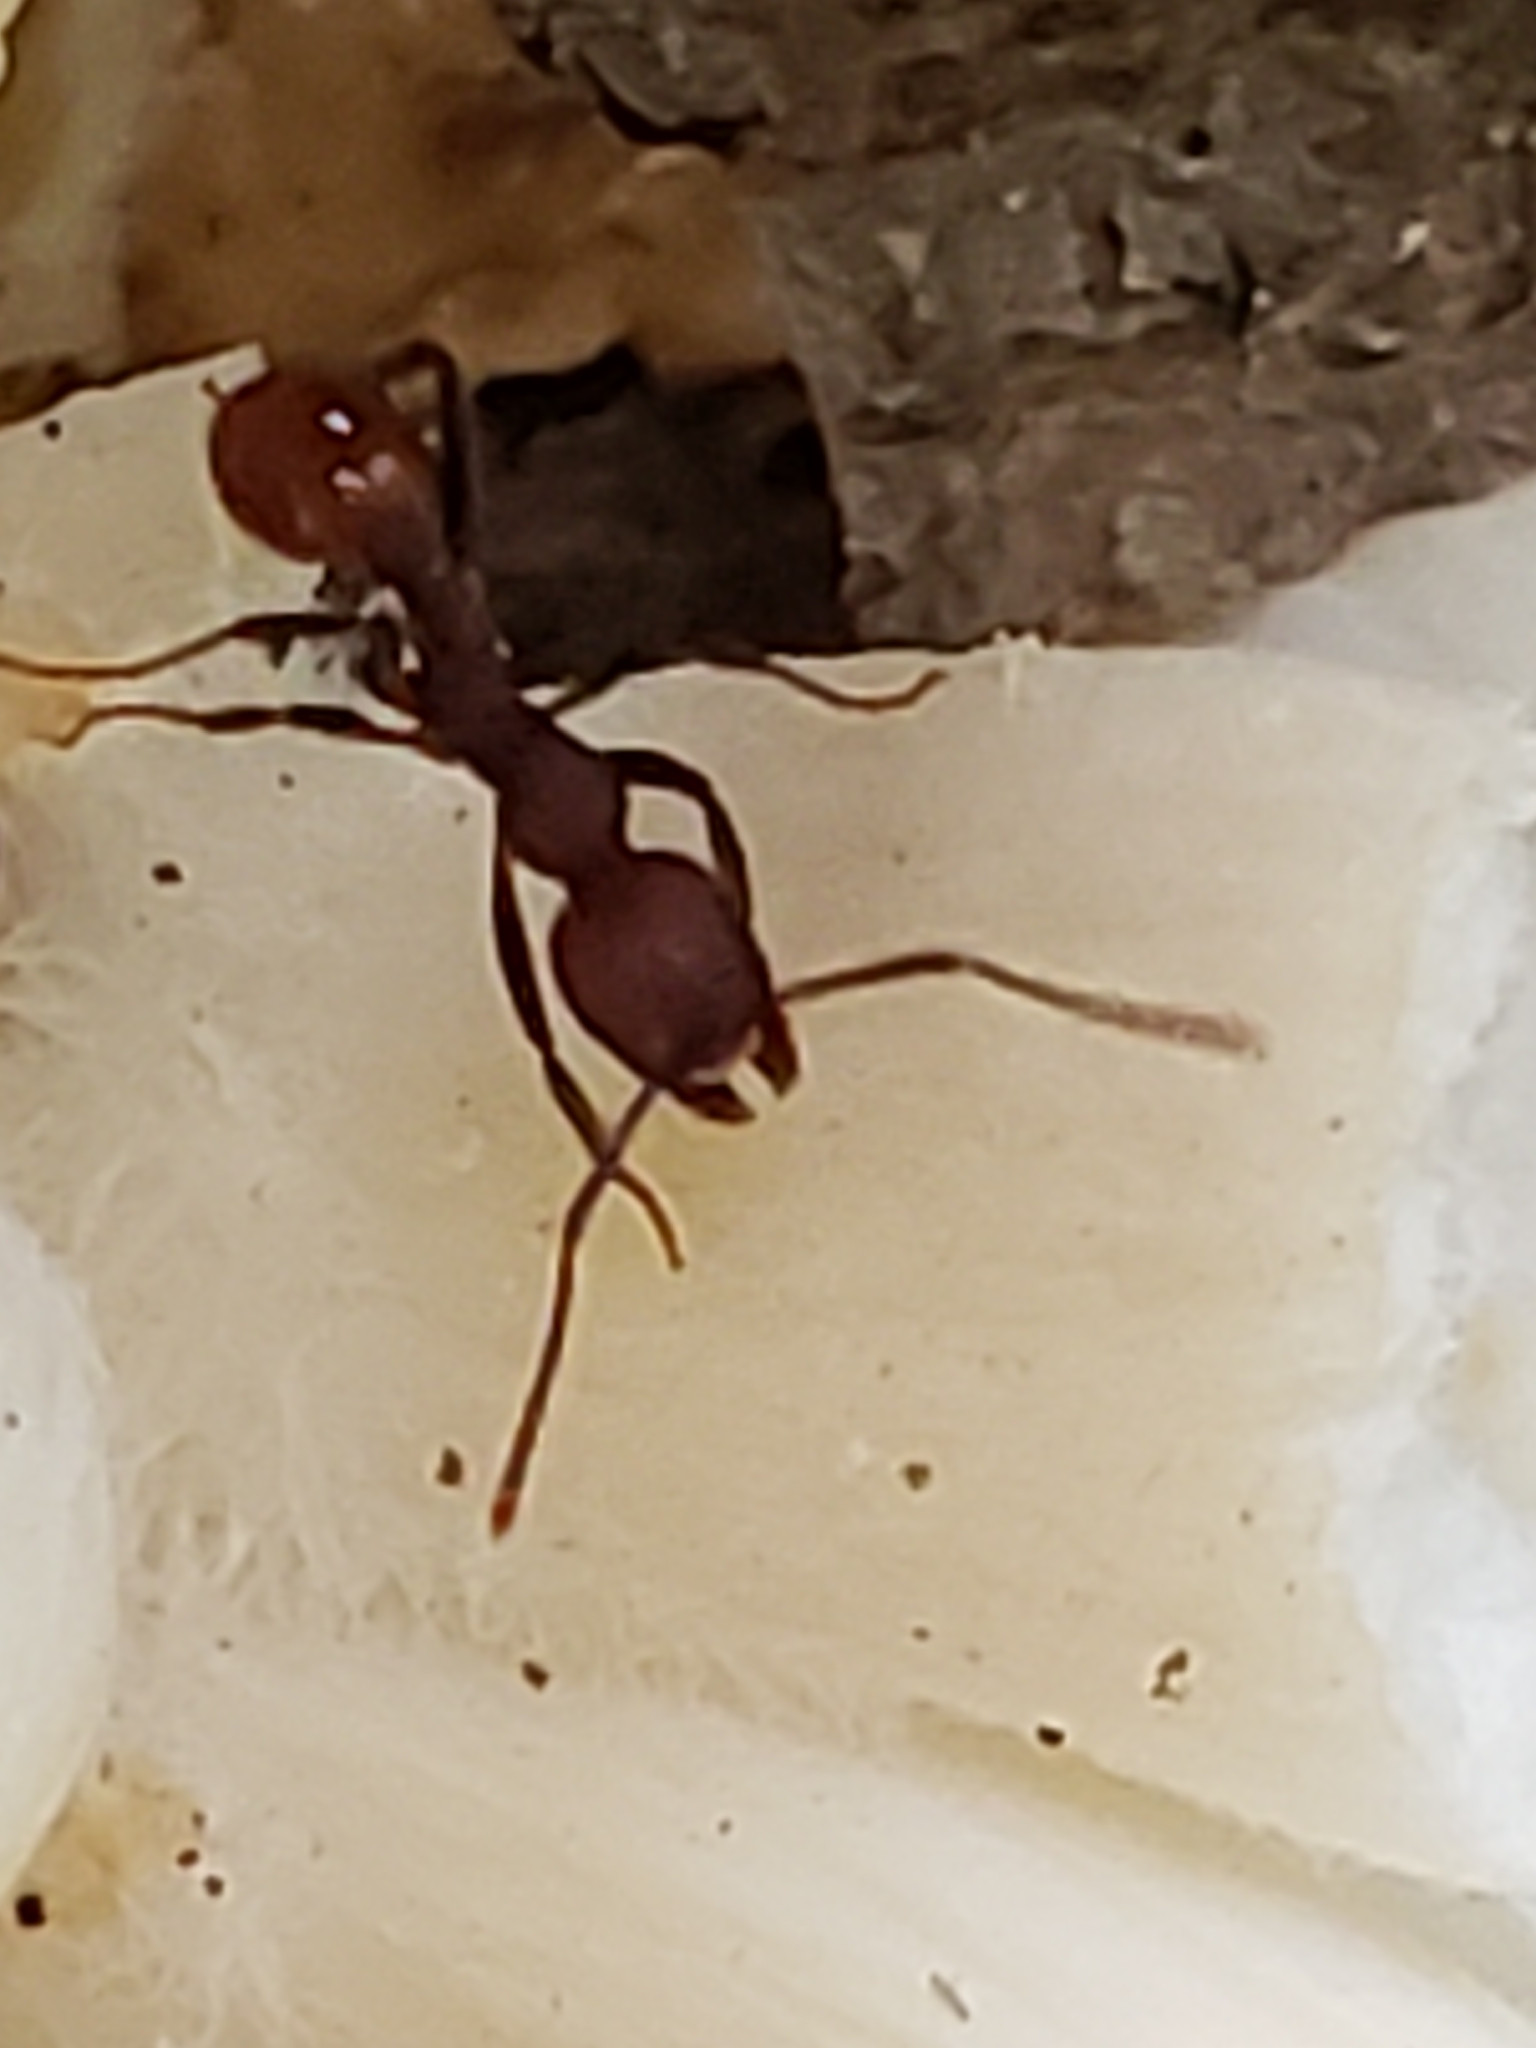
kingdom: Animalia
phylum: Arthropoda
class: Insecta
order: Hymenoptera
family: Formicidae
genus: Aphaenogaster
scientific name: Aphaenogaster tennesseensis
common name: Tennessee thread-waisted ant
